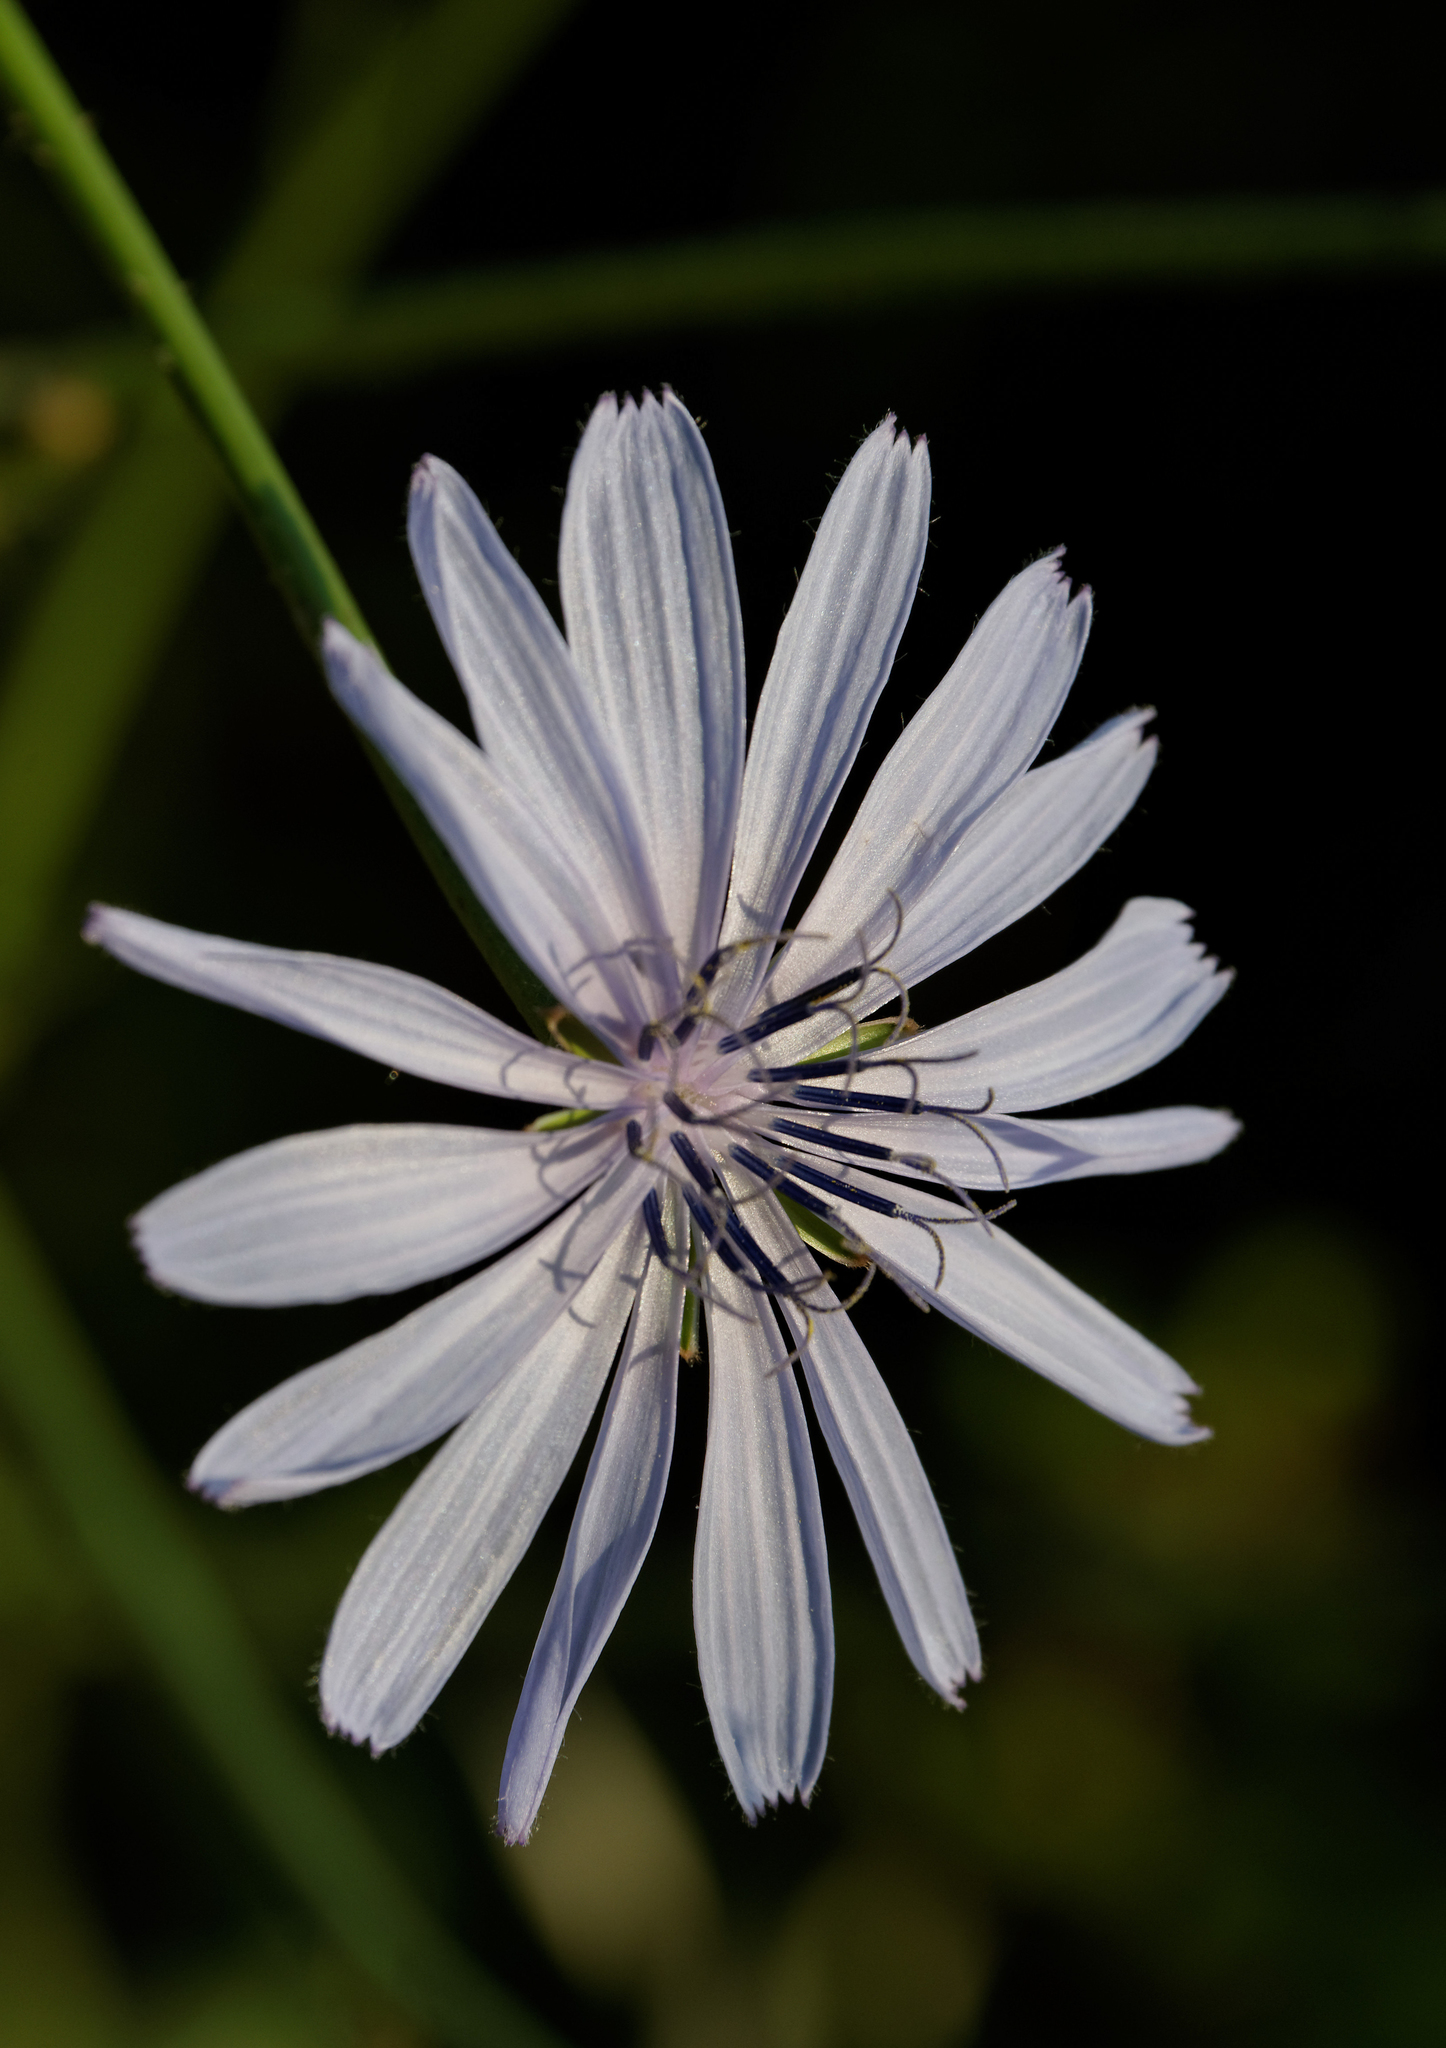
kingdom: Plantae
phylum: Tracheophyta
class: Magnoliopsida
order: Asterales
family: Asteraceae
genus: Cichorium
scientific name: Cichorium intybus
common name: Chicory
